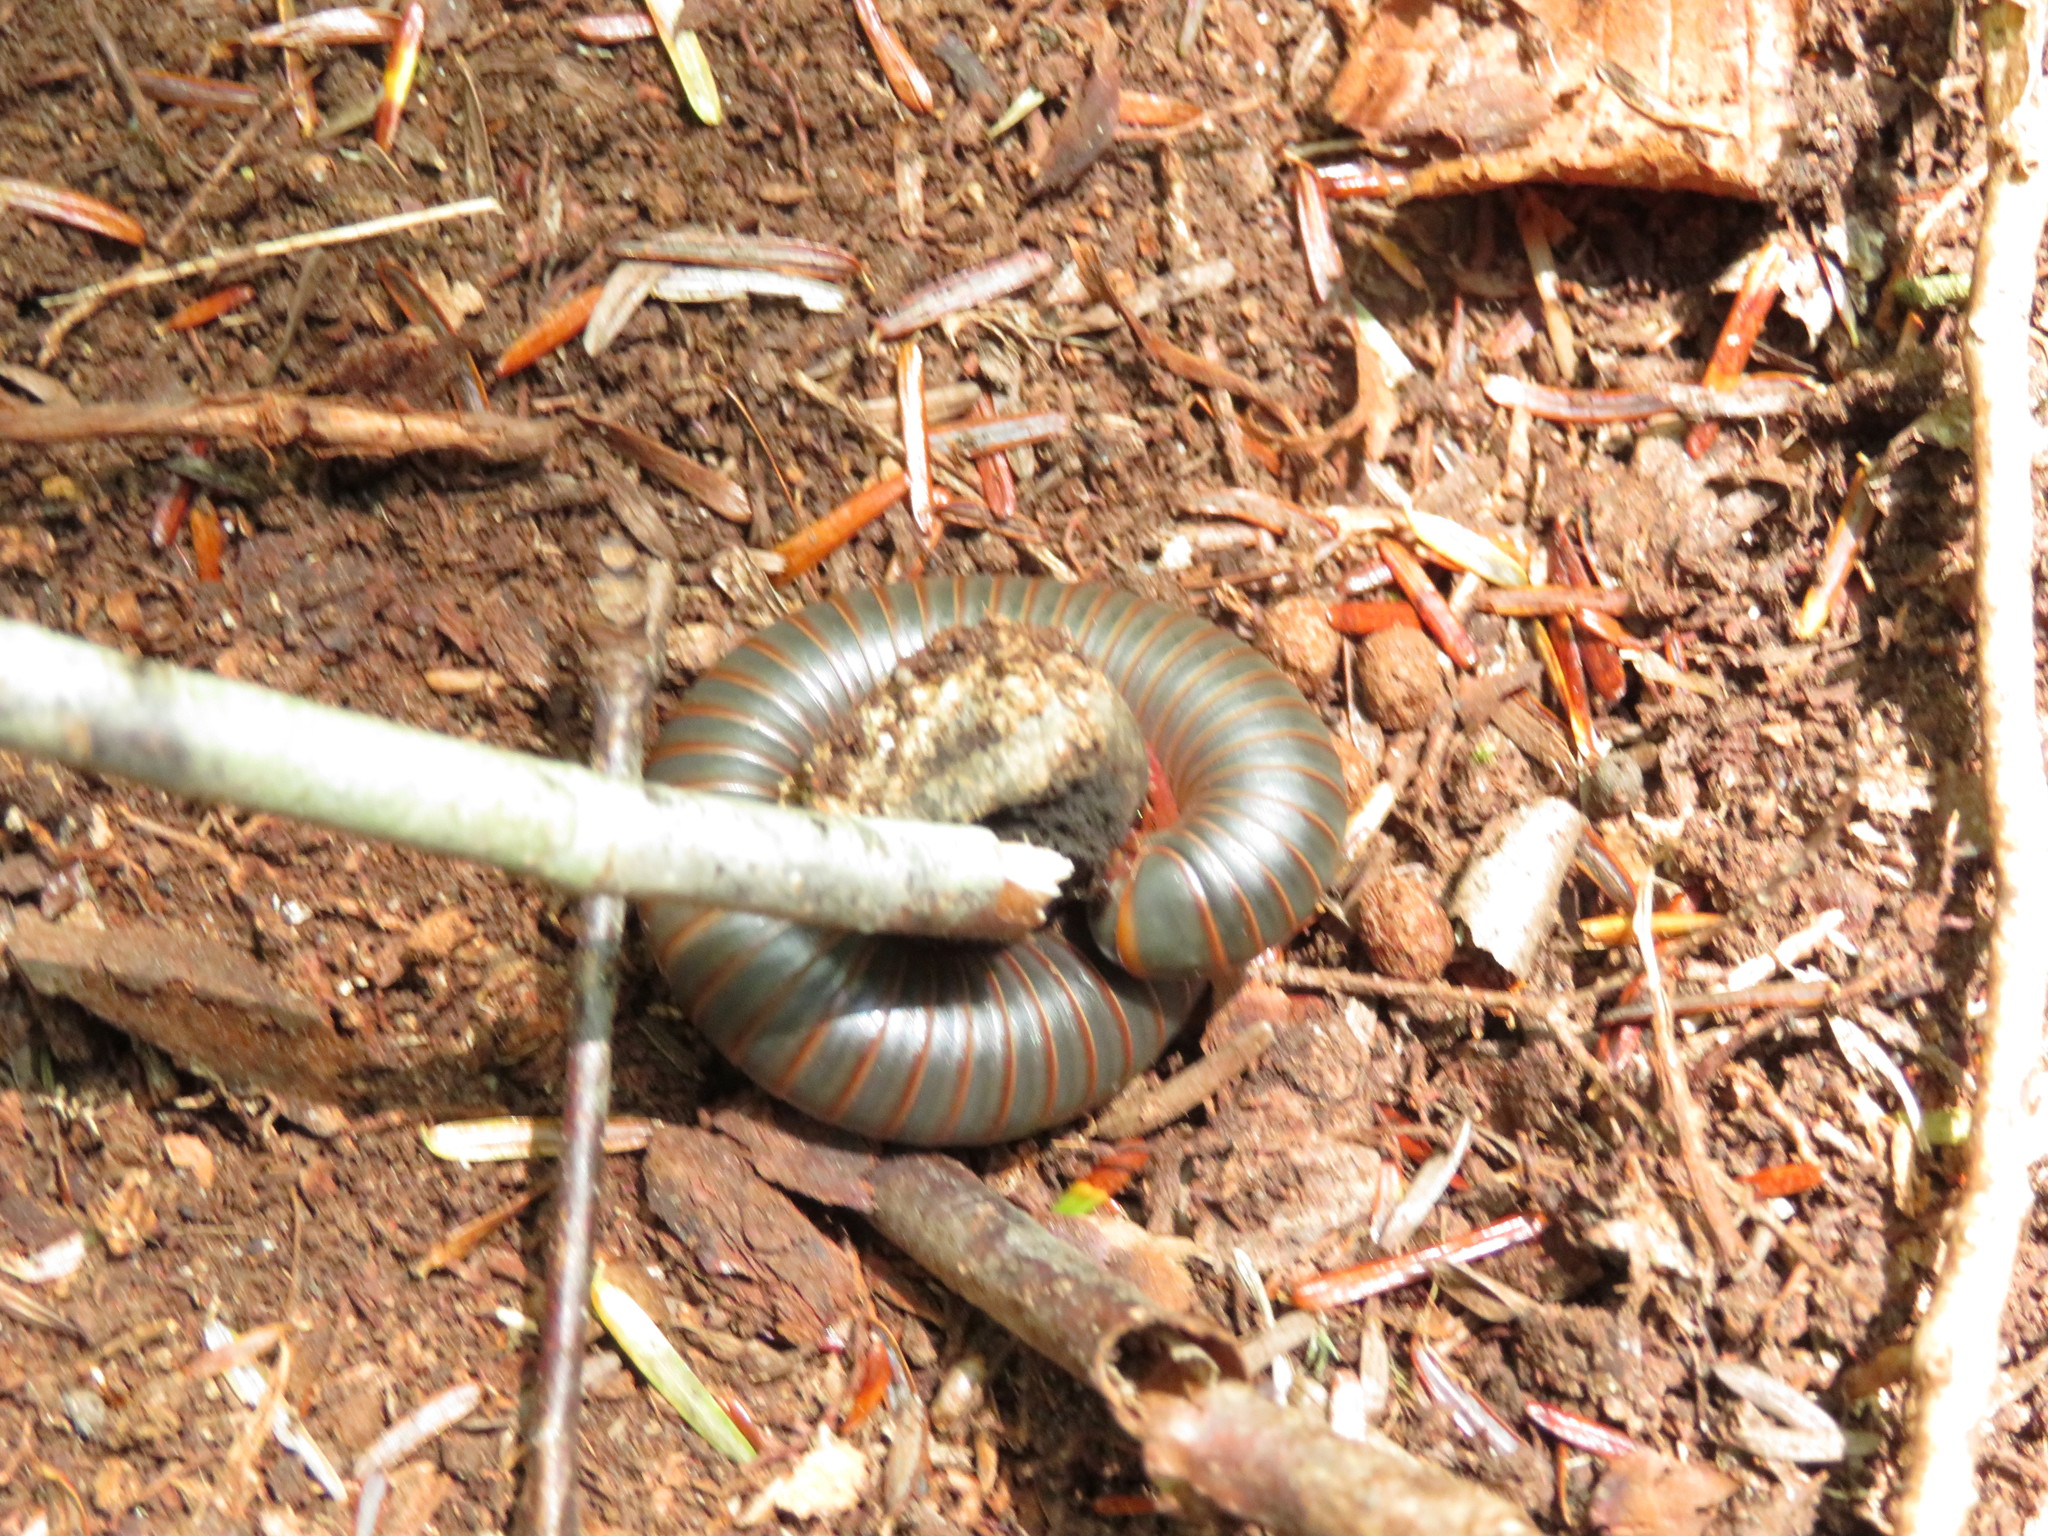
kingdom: Animalia
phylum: Arthropoda
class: Diplopoda
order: Spirobolida
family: Spirobolidae
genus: Narceus
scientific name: Narceus
